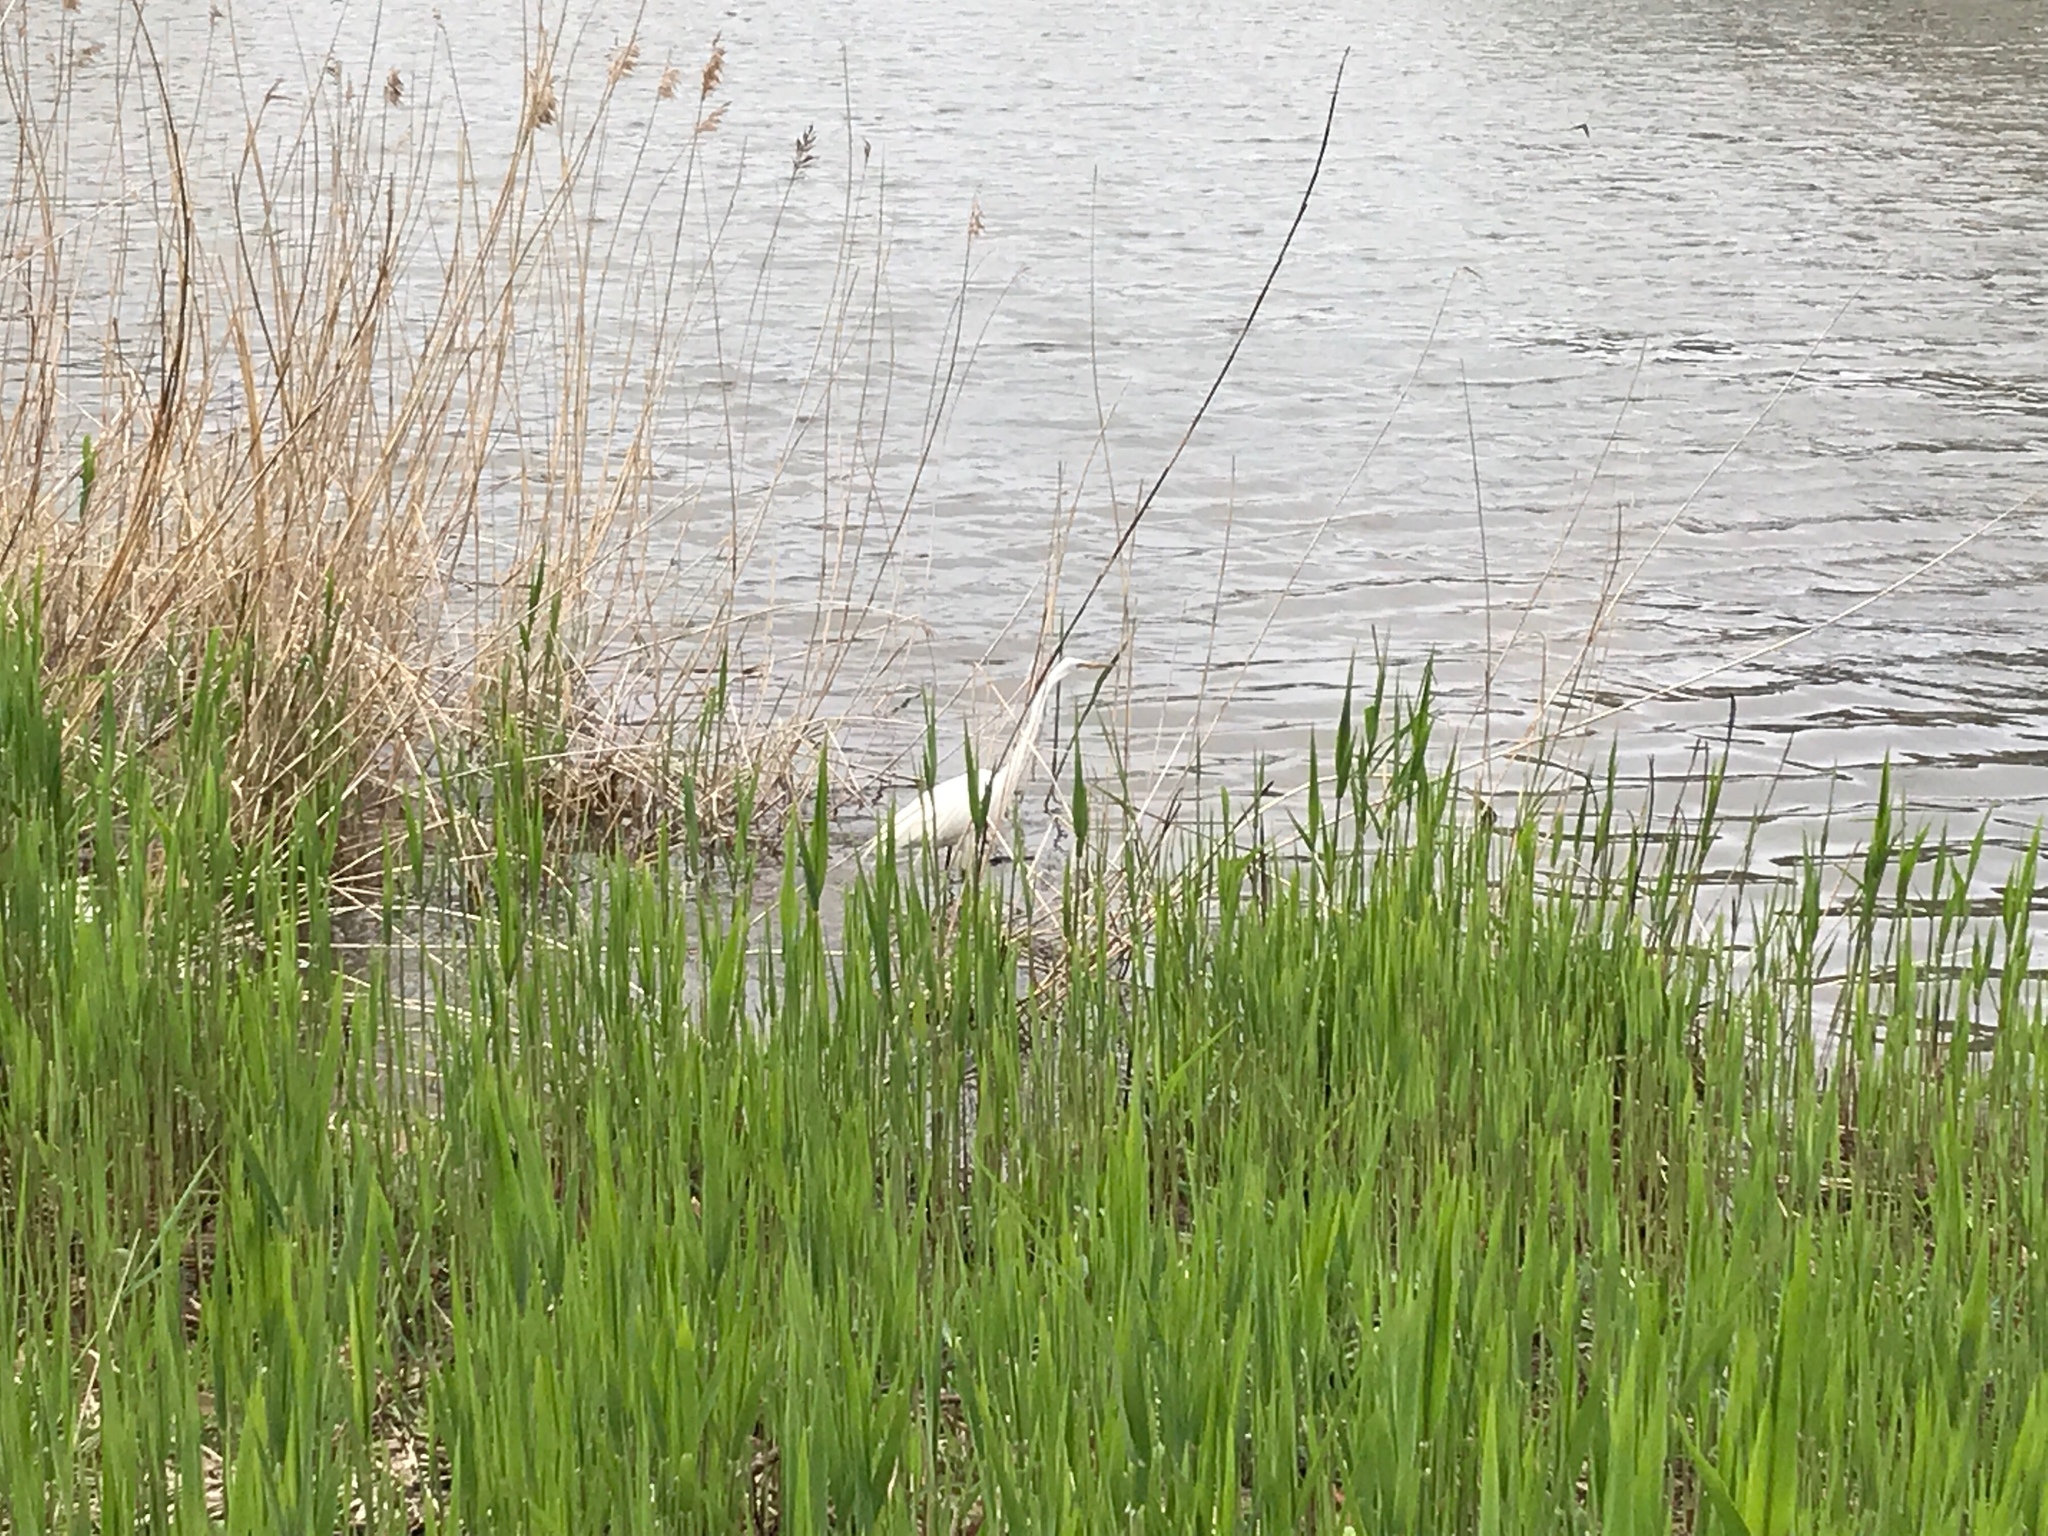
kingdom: Animalia
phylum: Chordata
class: Aves
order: Pelecaniformes
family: Ardeidae
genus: Ardea
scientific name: Ardea alba
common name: Great egret
